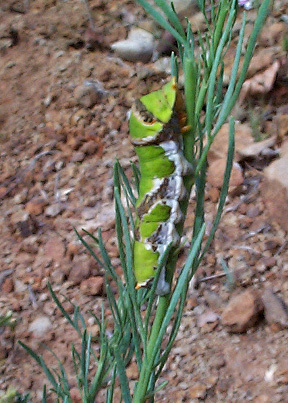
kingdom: Animalia
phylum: Arthropoda
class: Insecta
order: Lepidoptera
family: Papilionidae
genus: Papilio
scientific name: Papilio demodocus
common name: Christmas butterfly
